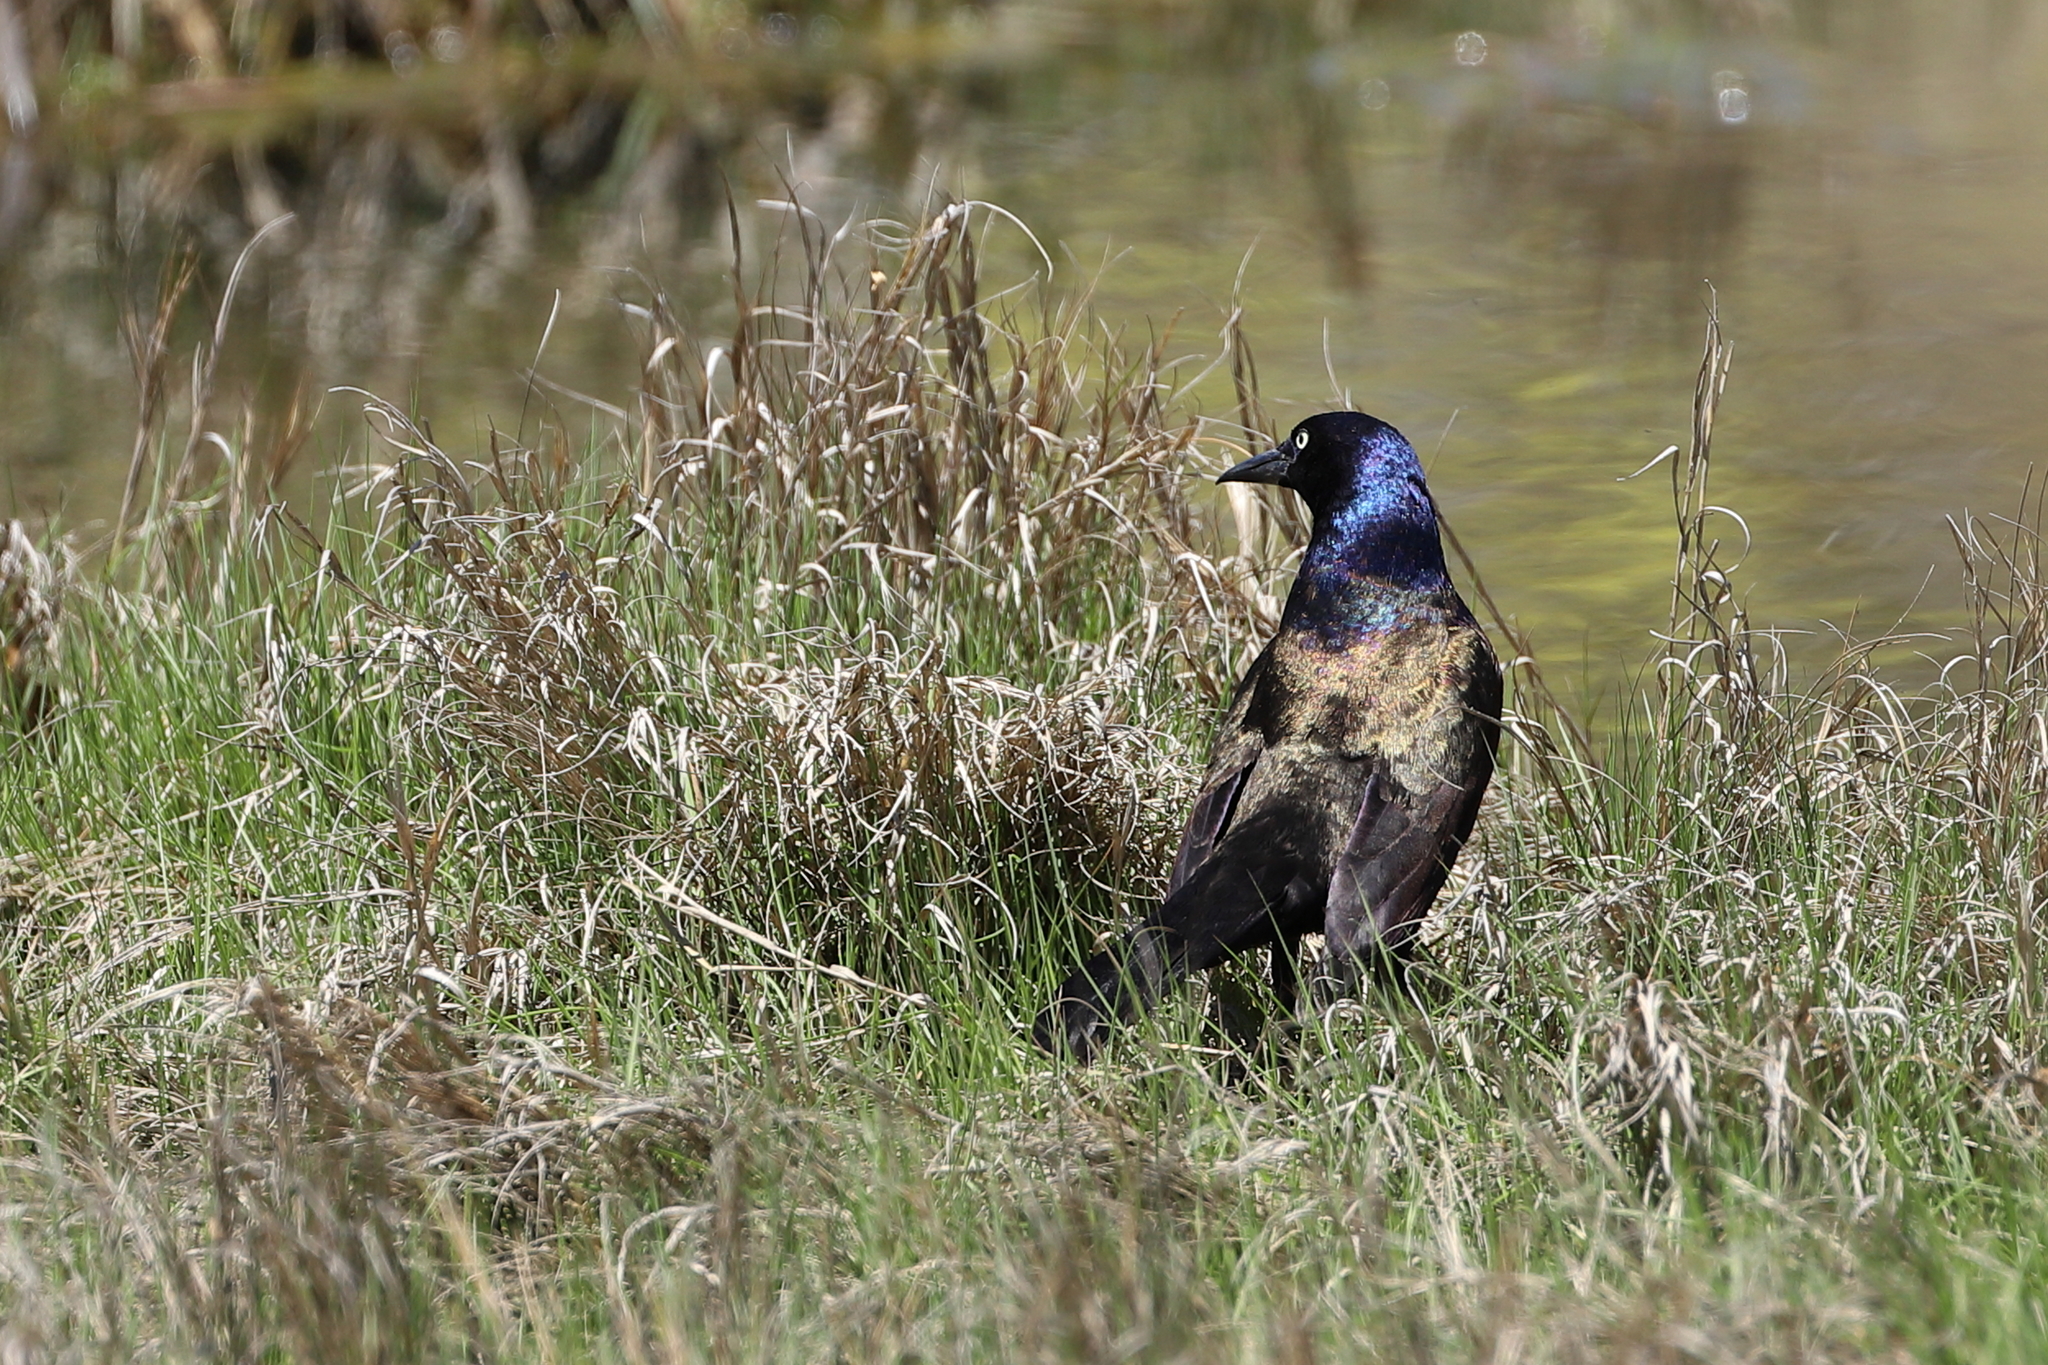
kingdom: Animalia
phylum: Chordata
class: Aves
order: Passeriformes
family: Icteridae
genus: Quiscalus
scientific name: Quiscalus quiscula
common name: Common grackle
